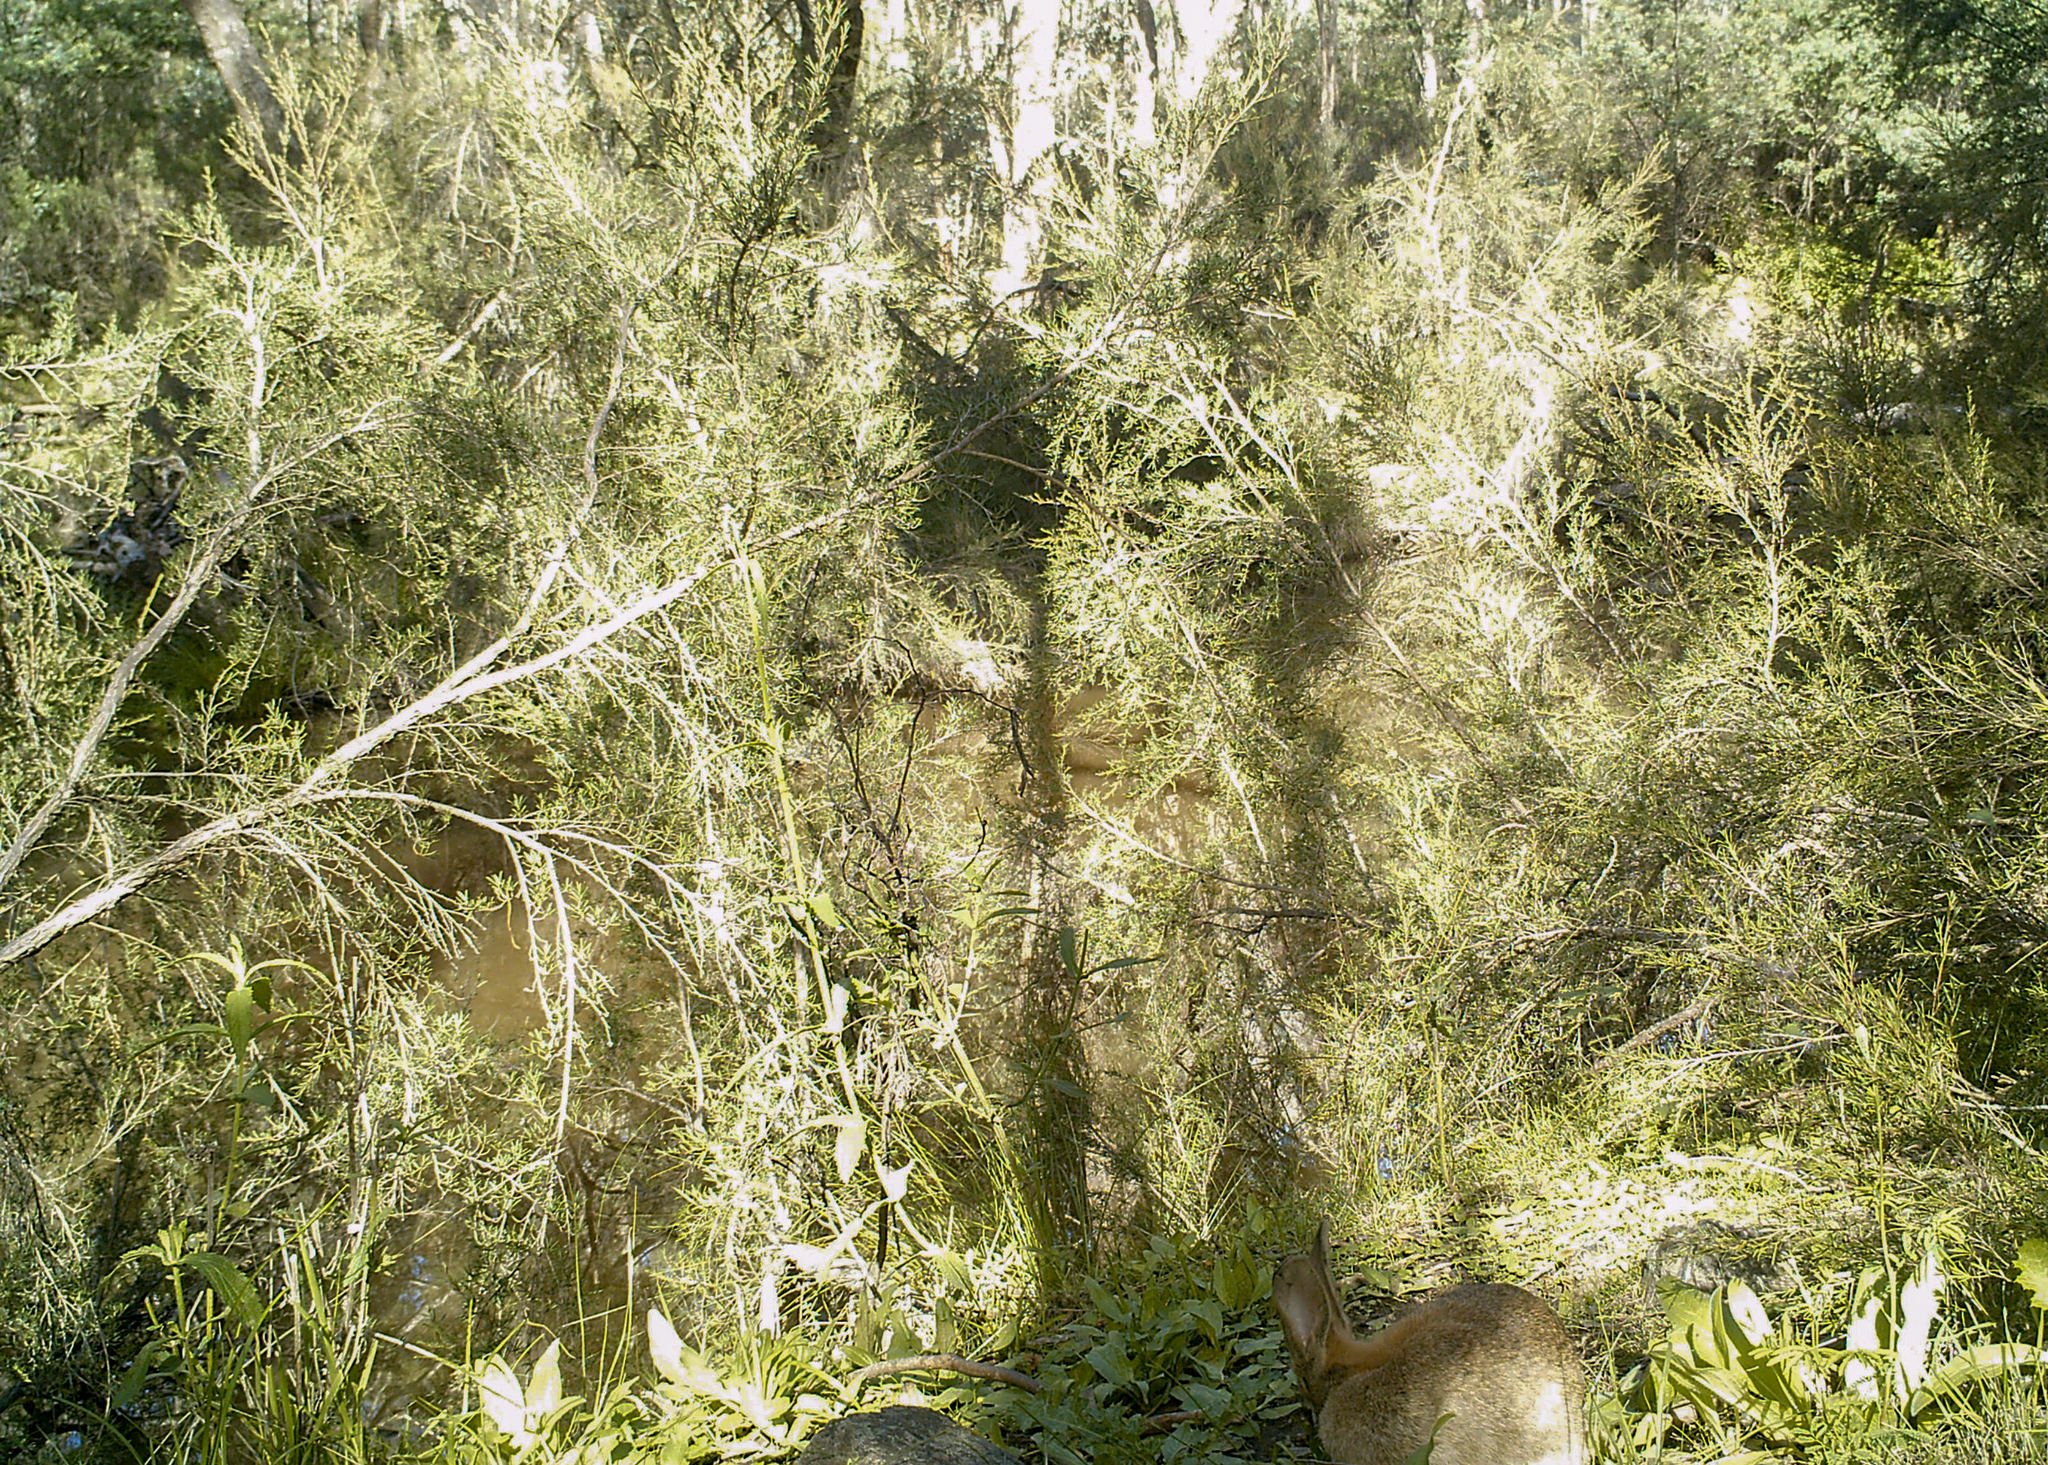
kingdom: Animalia
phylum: Chordata
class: Mammalia
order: Lagomorpha
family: Leporidae
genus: Oryctolagus
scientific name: Oryctolagus cuniculus
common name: European rabbit
